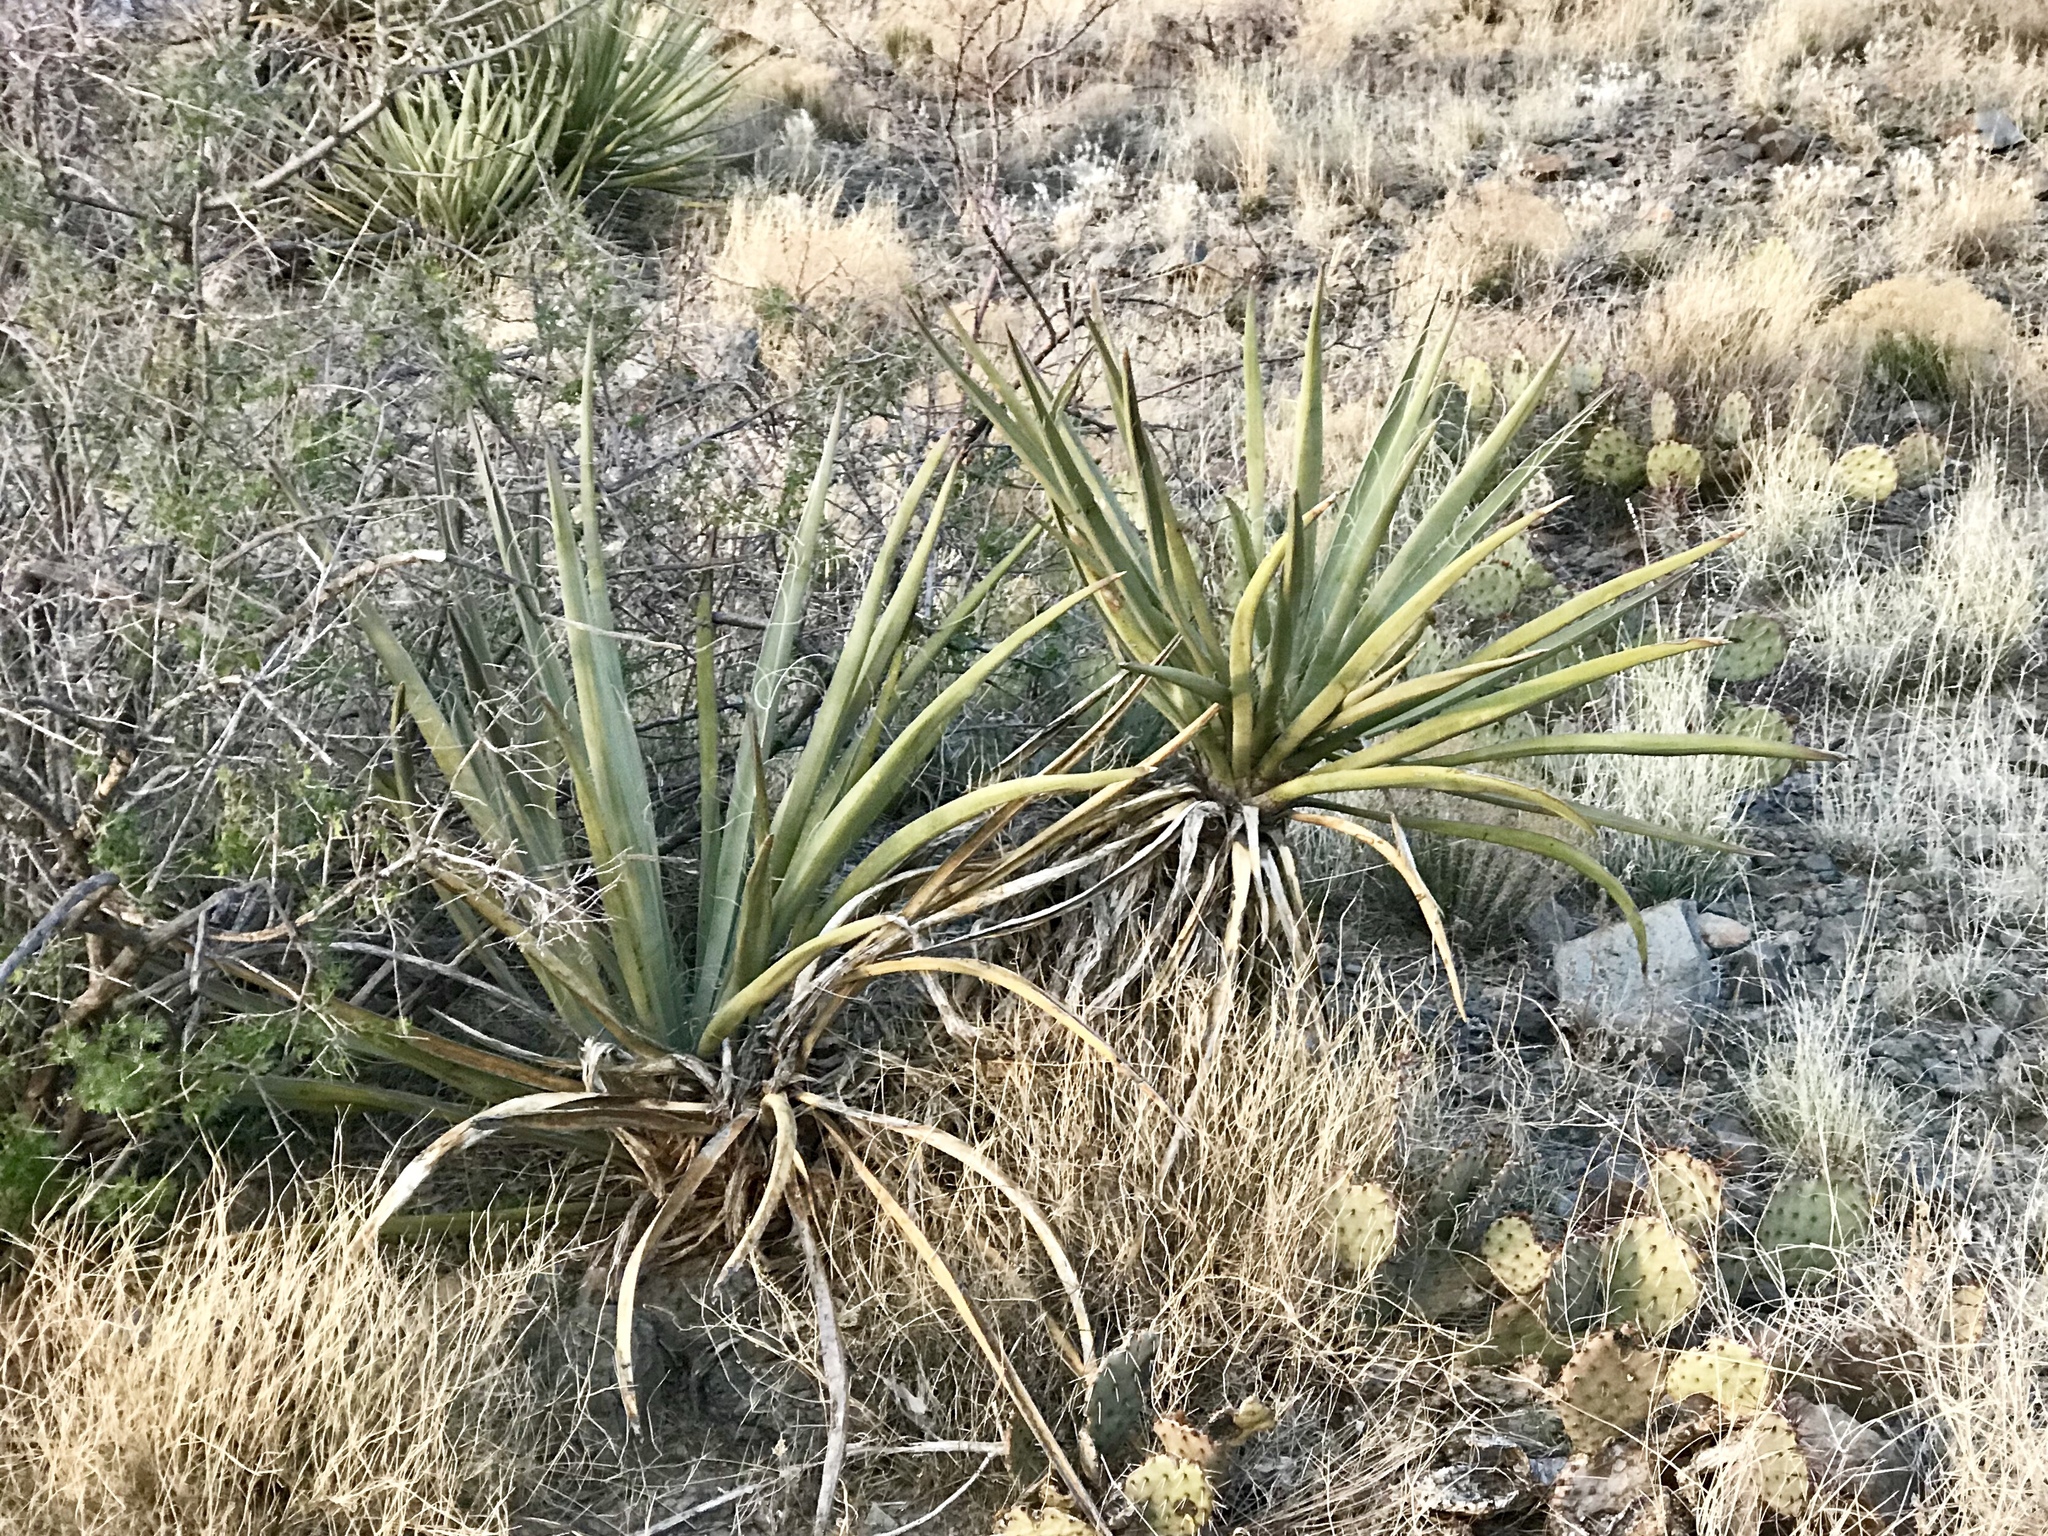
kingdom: Plantae
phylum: Tracheophyta
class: Liliopsida
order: Asparagales
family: Asparagaceae
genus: Yucca
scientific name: Yucca baccata
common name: Banana yucca
